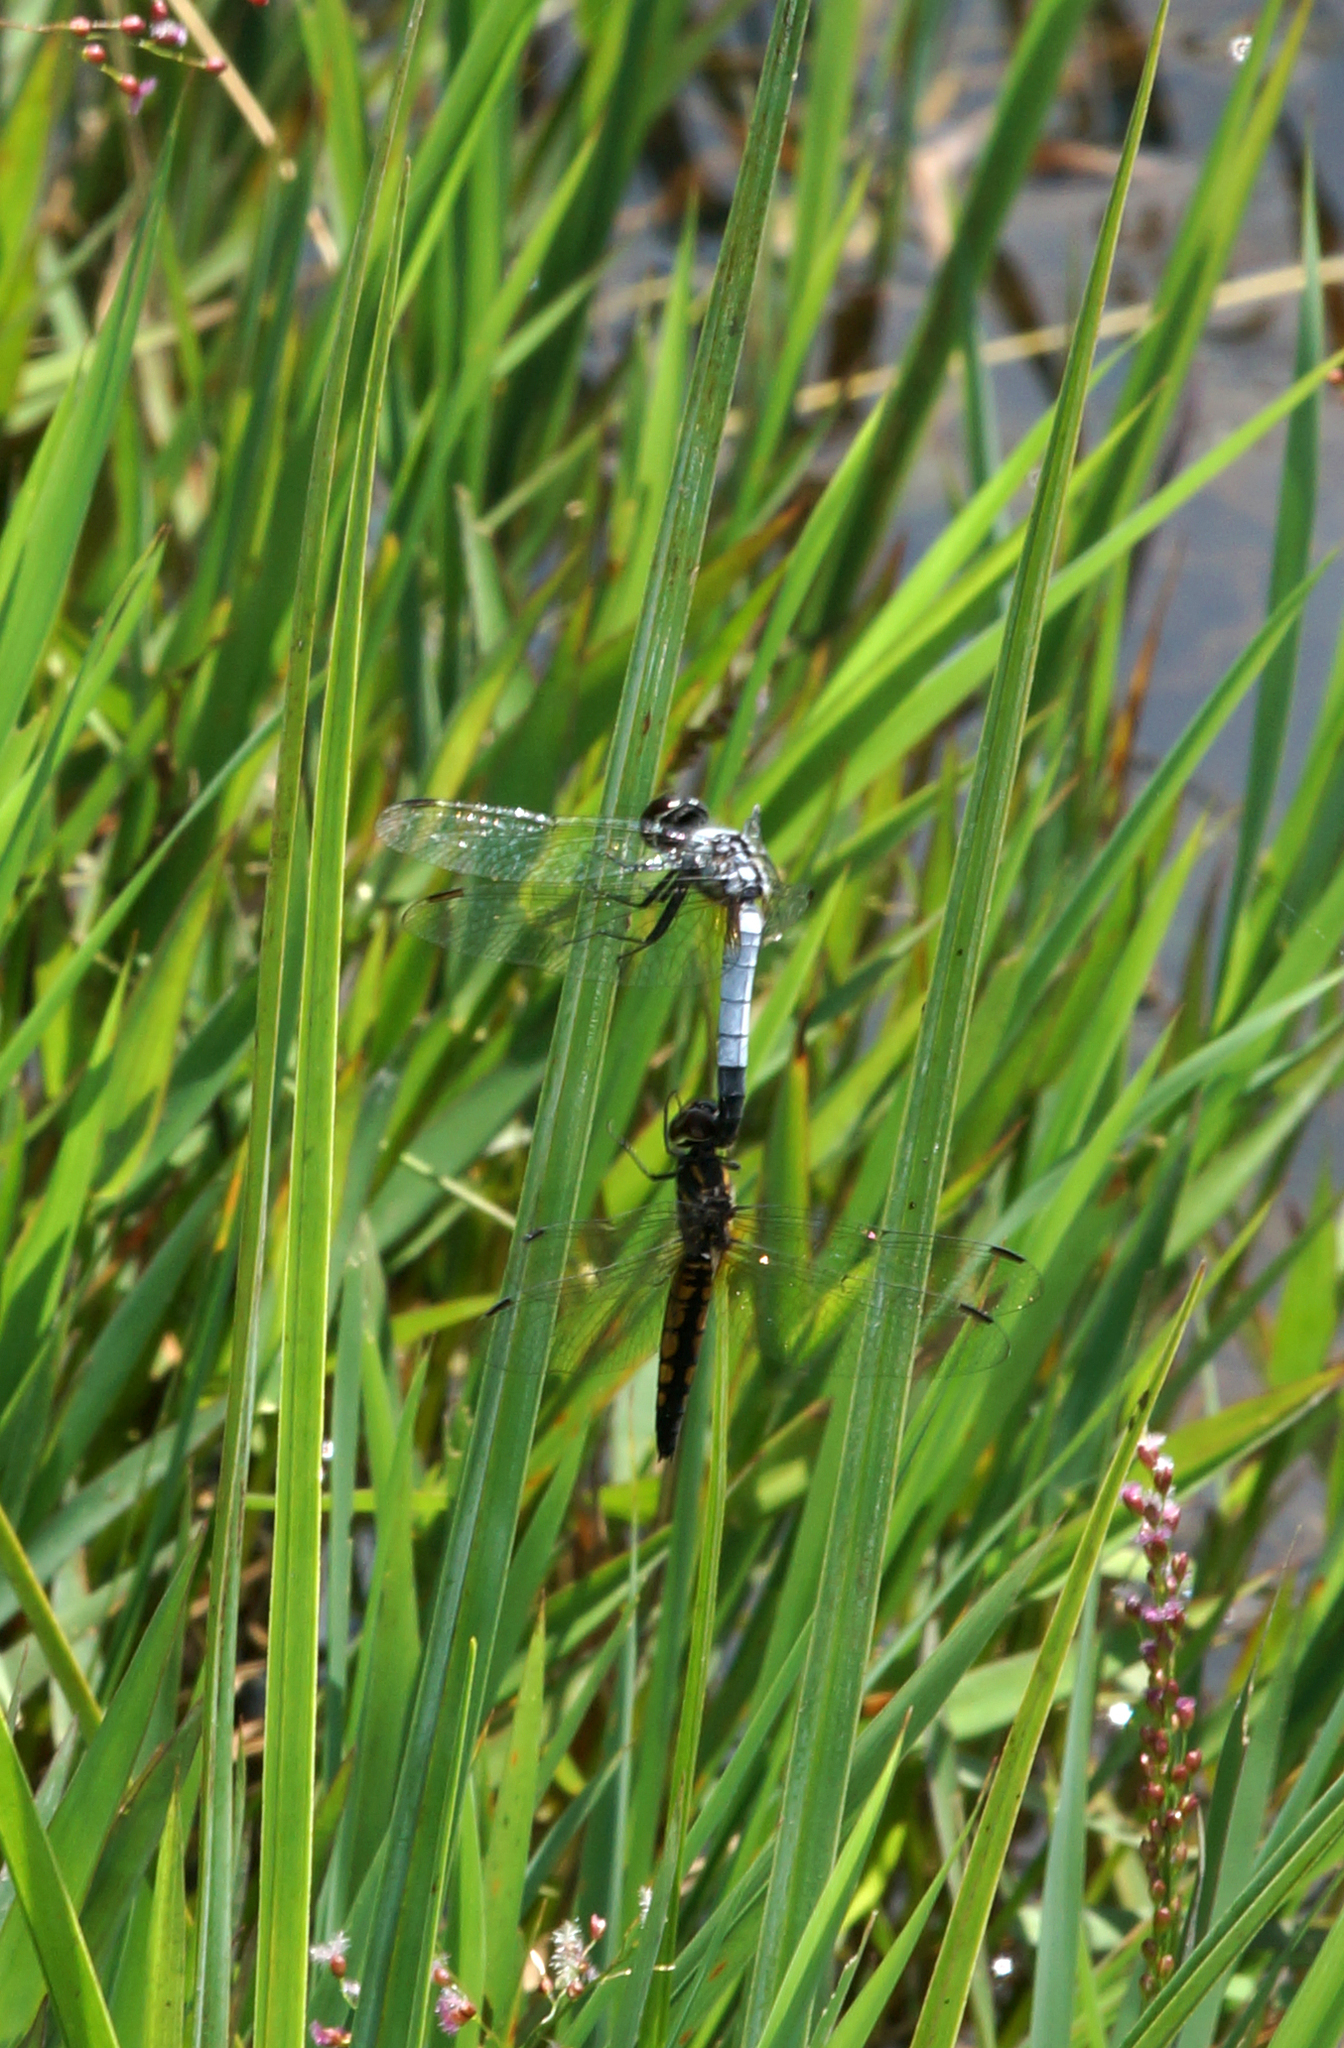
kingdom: Animalia
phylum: Arthropoda
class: Insecta
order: Odonata
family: Libellulidae
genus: Aethriamanta
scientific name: Aethriamanta gracilis
